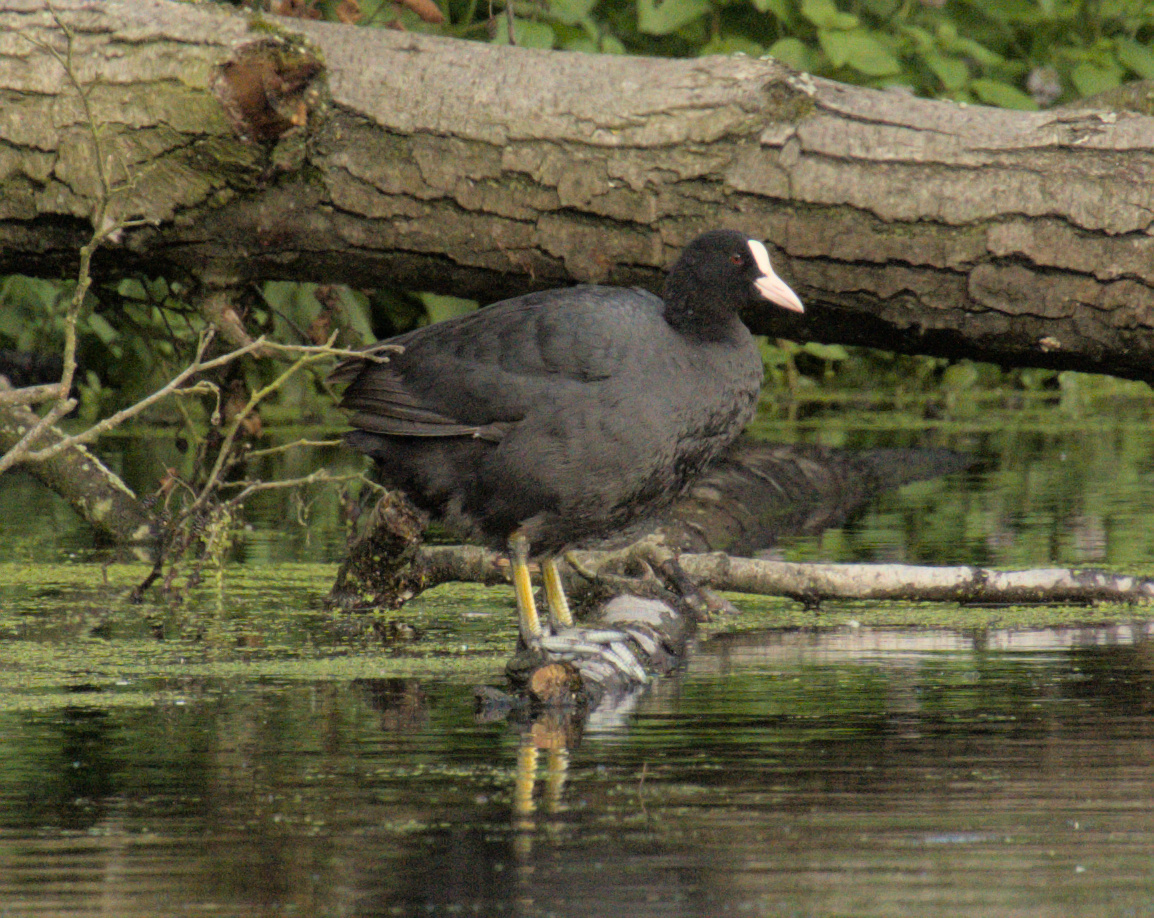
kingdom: Animalia
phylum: Chordata
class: Aves
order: Gruiformes
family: Rallidae
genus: Fulica
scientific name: Fulica atra
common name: Eurasian coot
